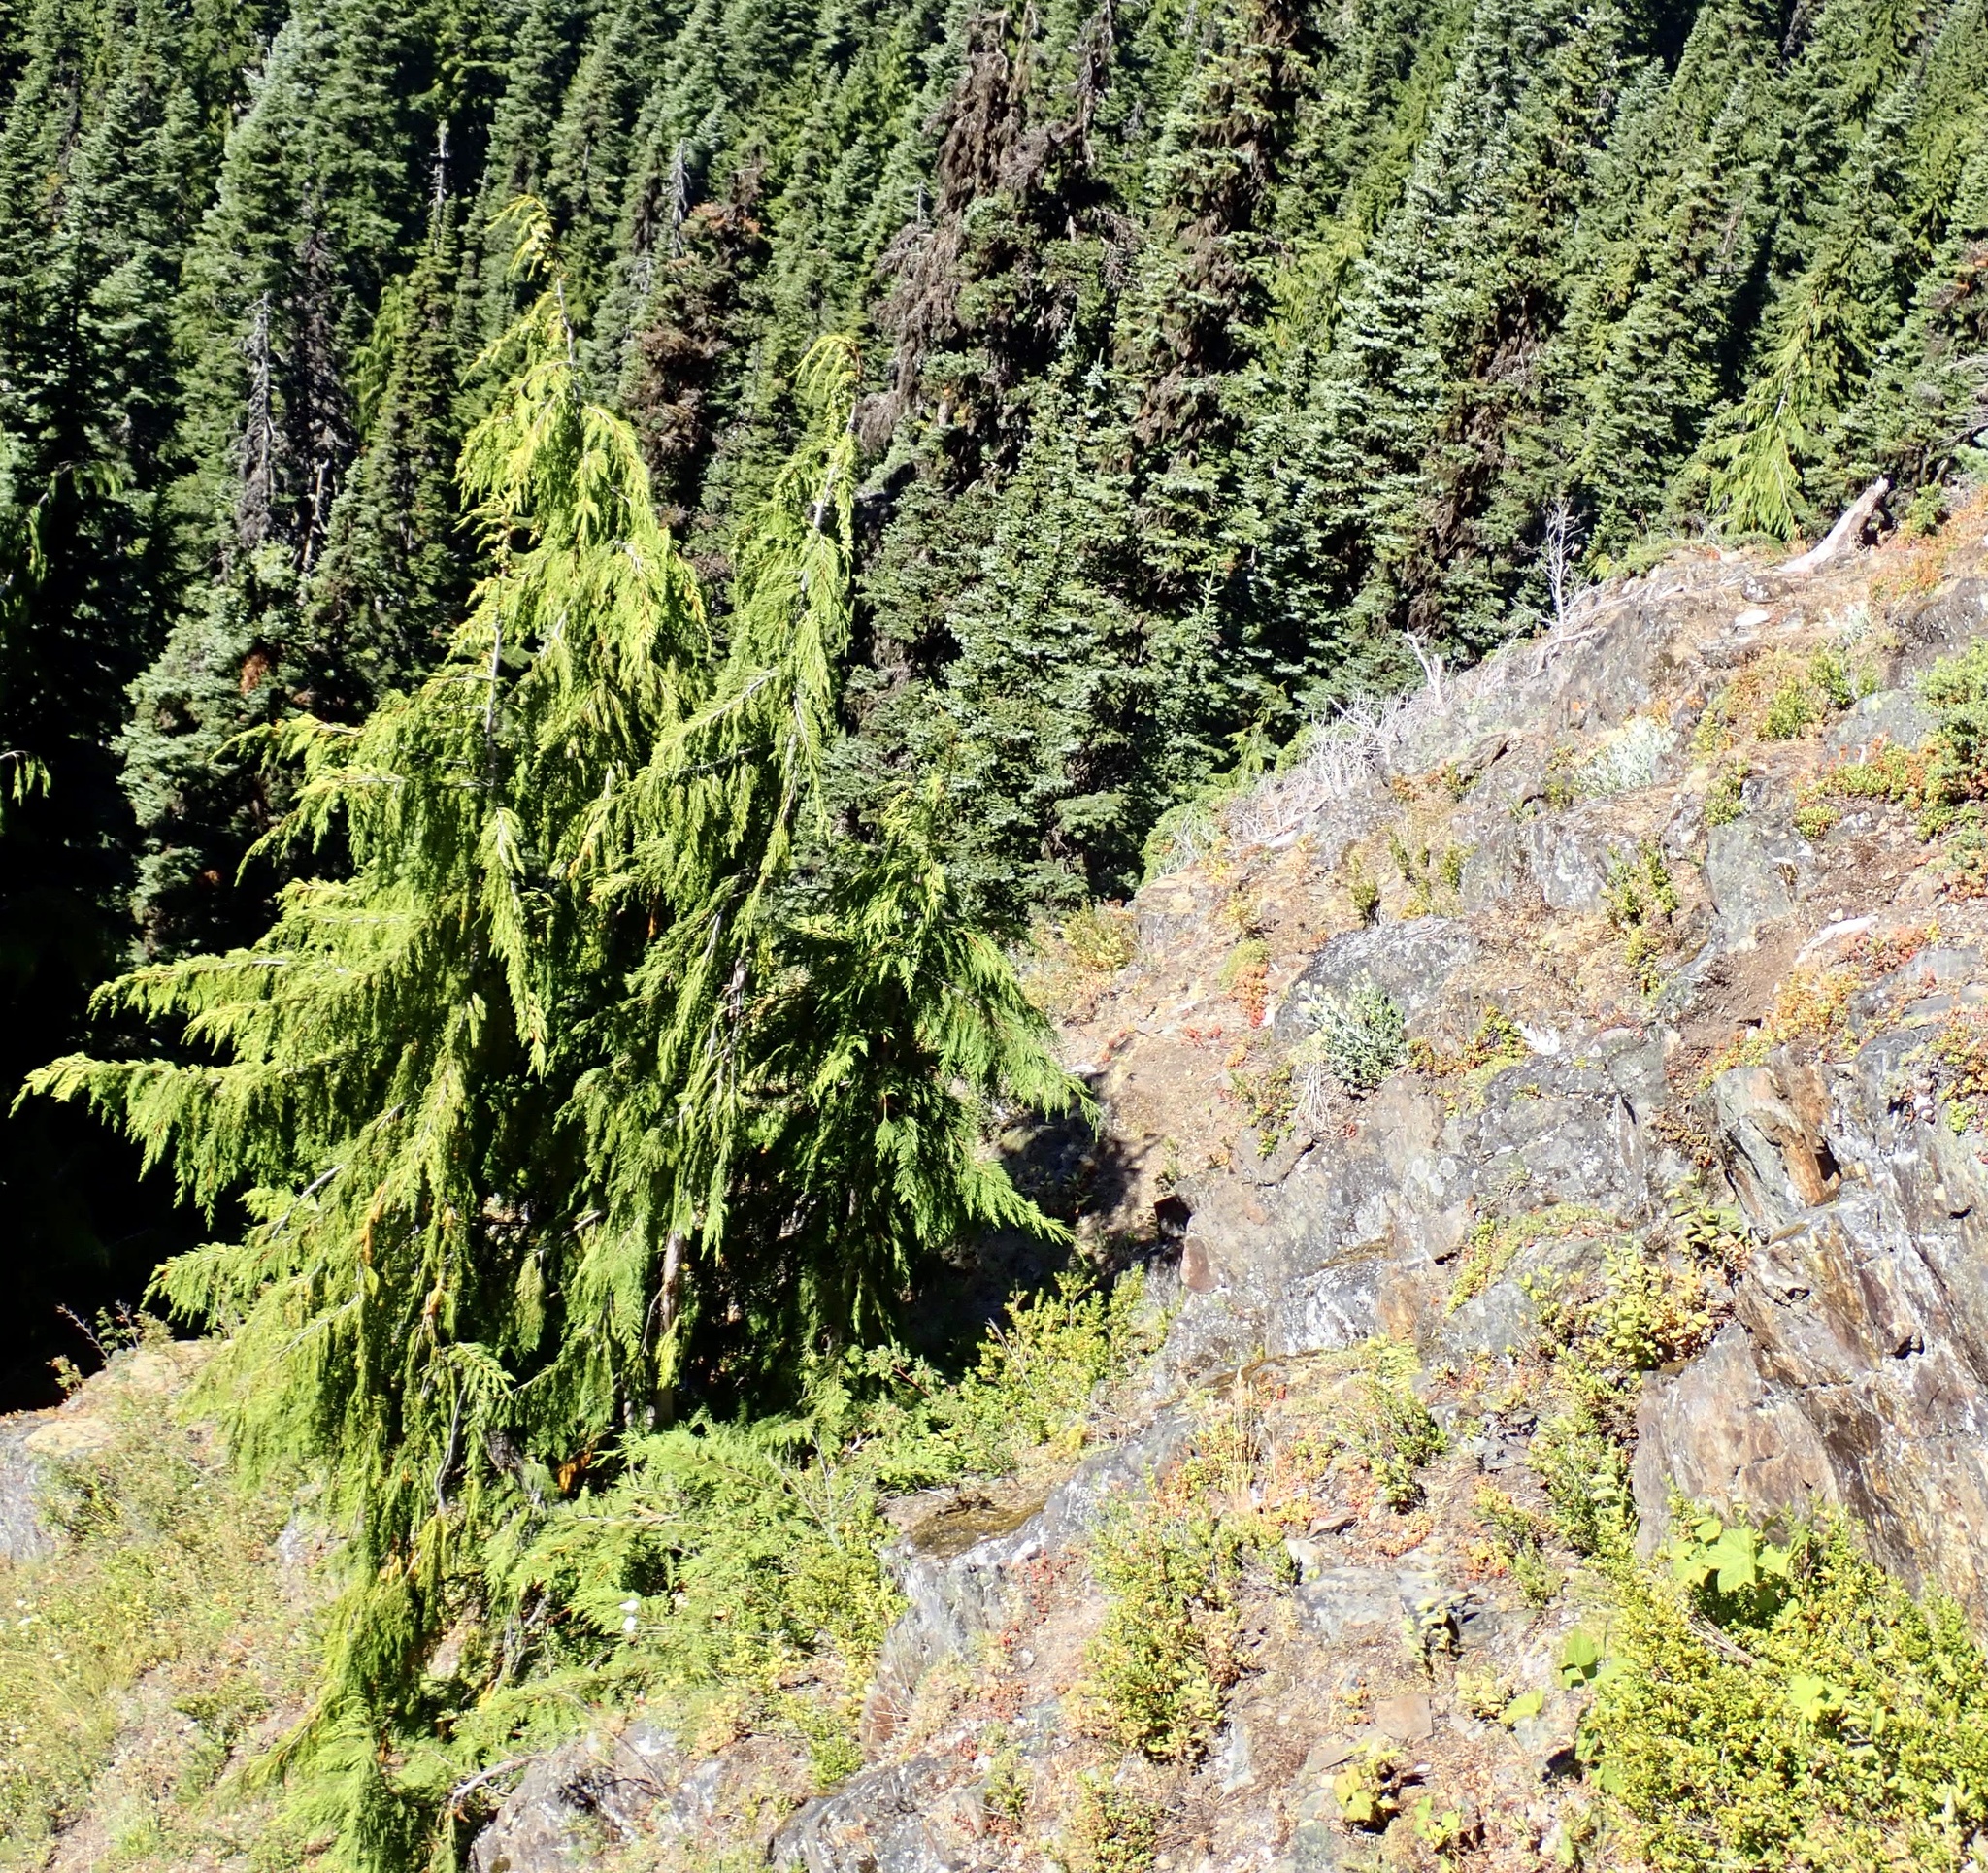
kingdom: Plantae
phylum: Tracheophyta
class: Pinopsida
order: Pinales
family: Cupressaceae
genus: Xanthocyparis
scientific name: Xanthocyparis nootkatensis
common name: Nootka cypress
